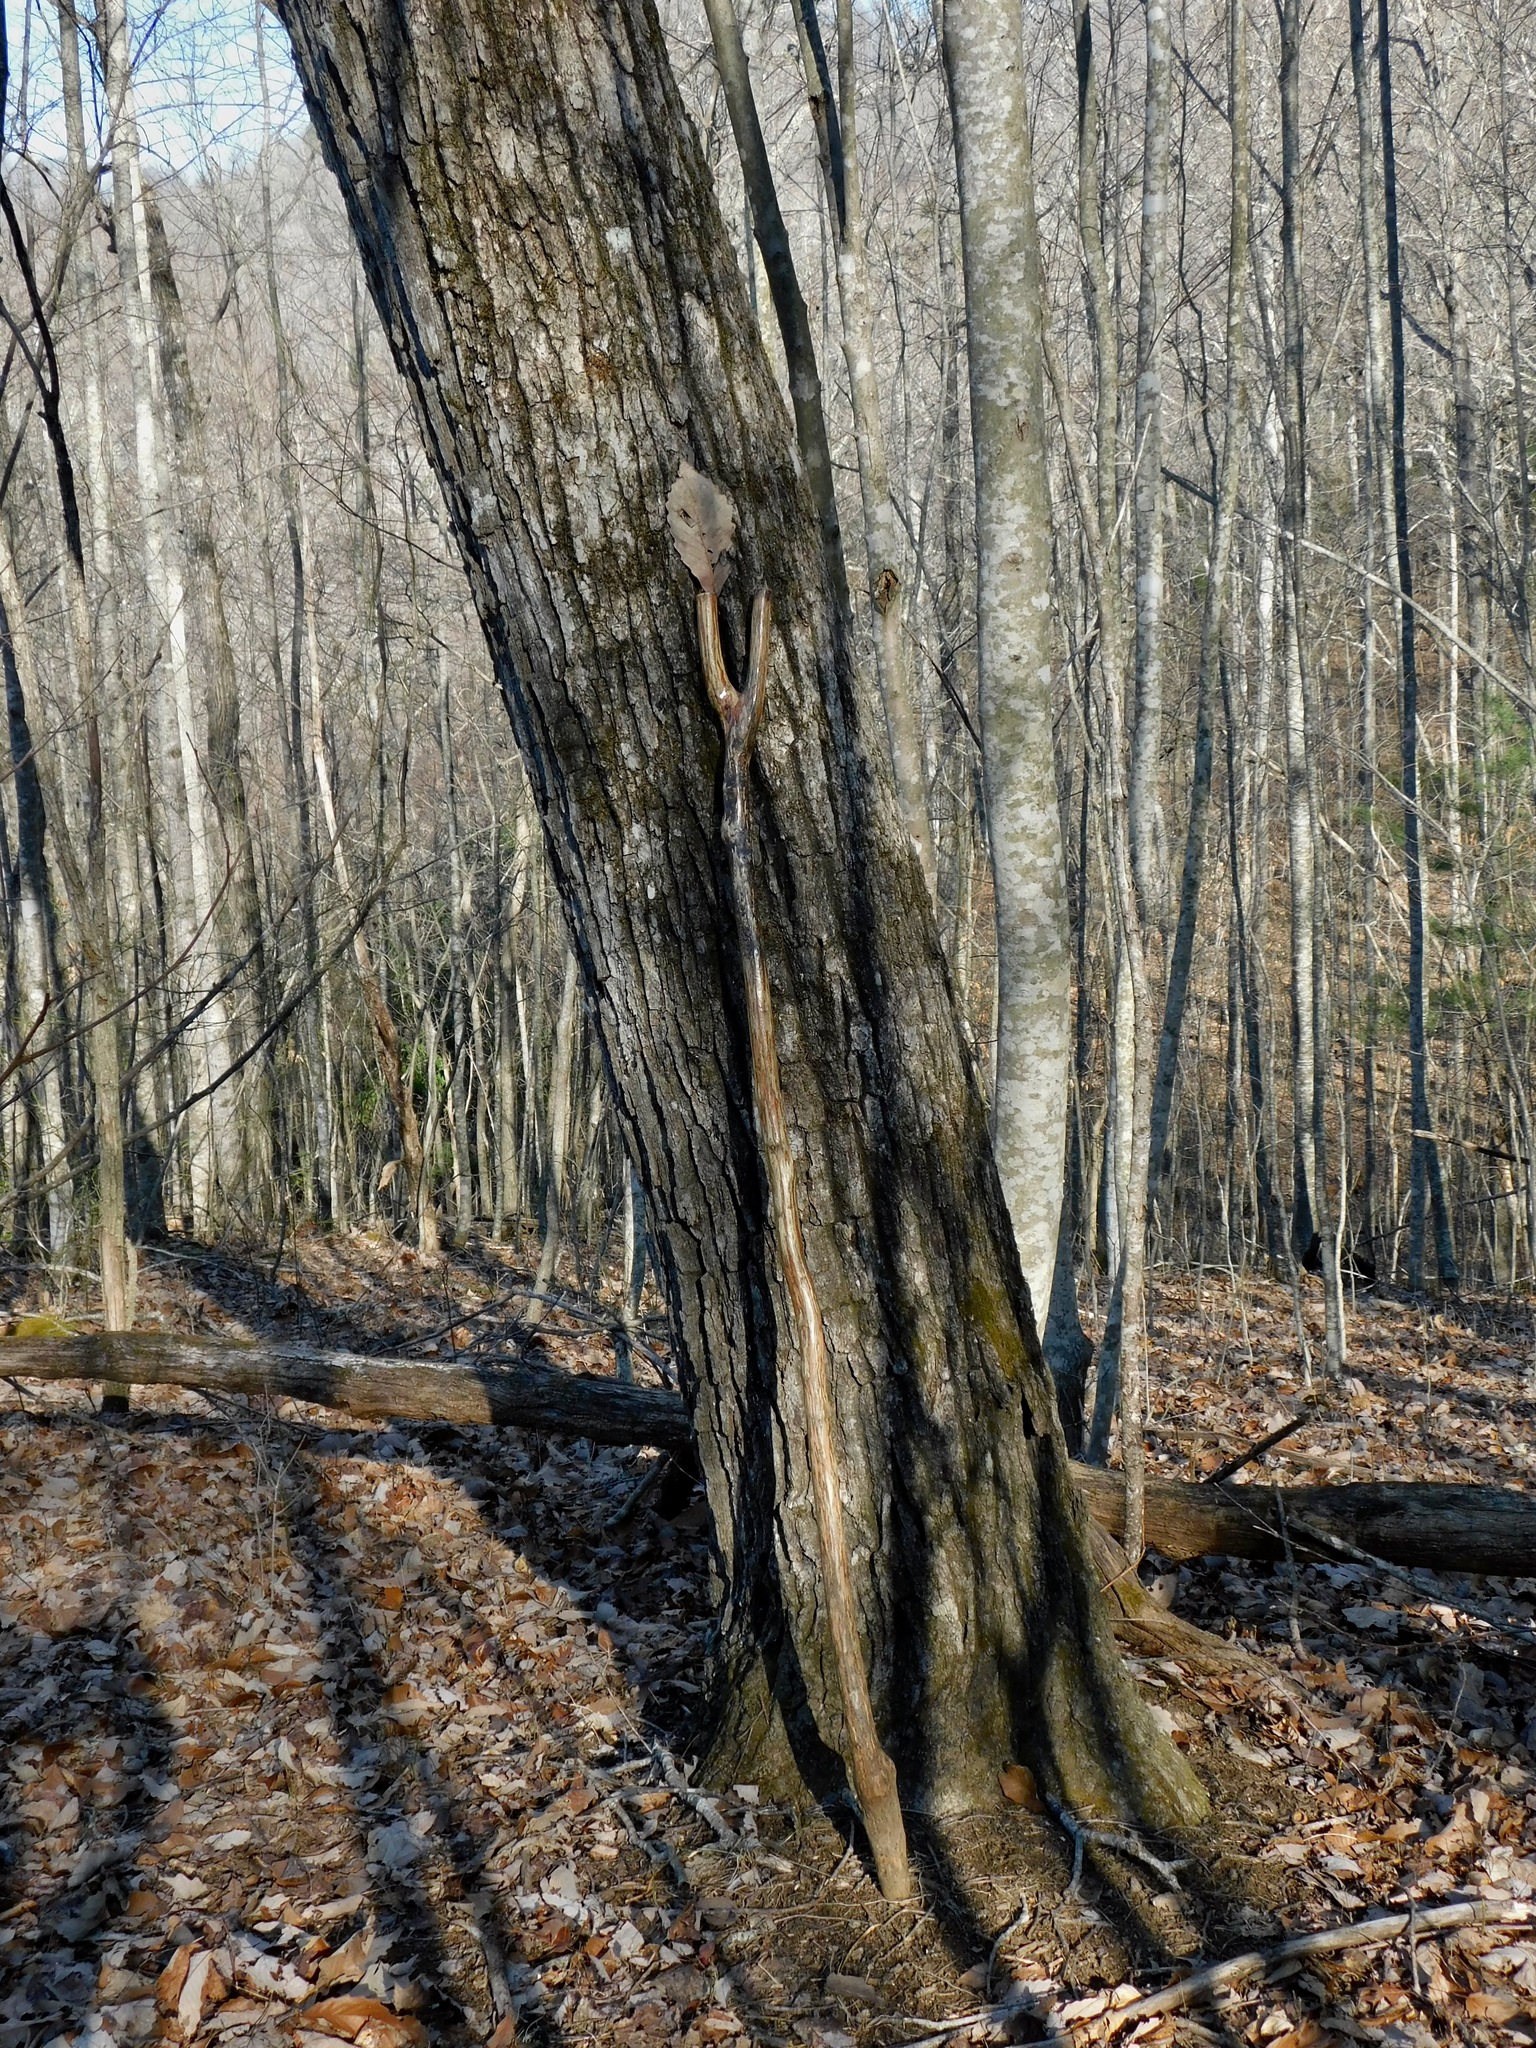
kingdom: Plantae
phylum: Tracheophyta
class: Magnoliopsida
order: Fagales
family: Fagaceae
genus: Quercus
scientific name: Quercus montana
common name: Chestnut oak
